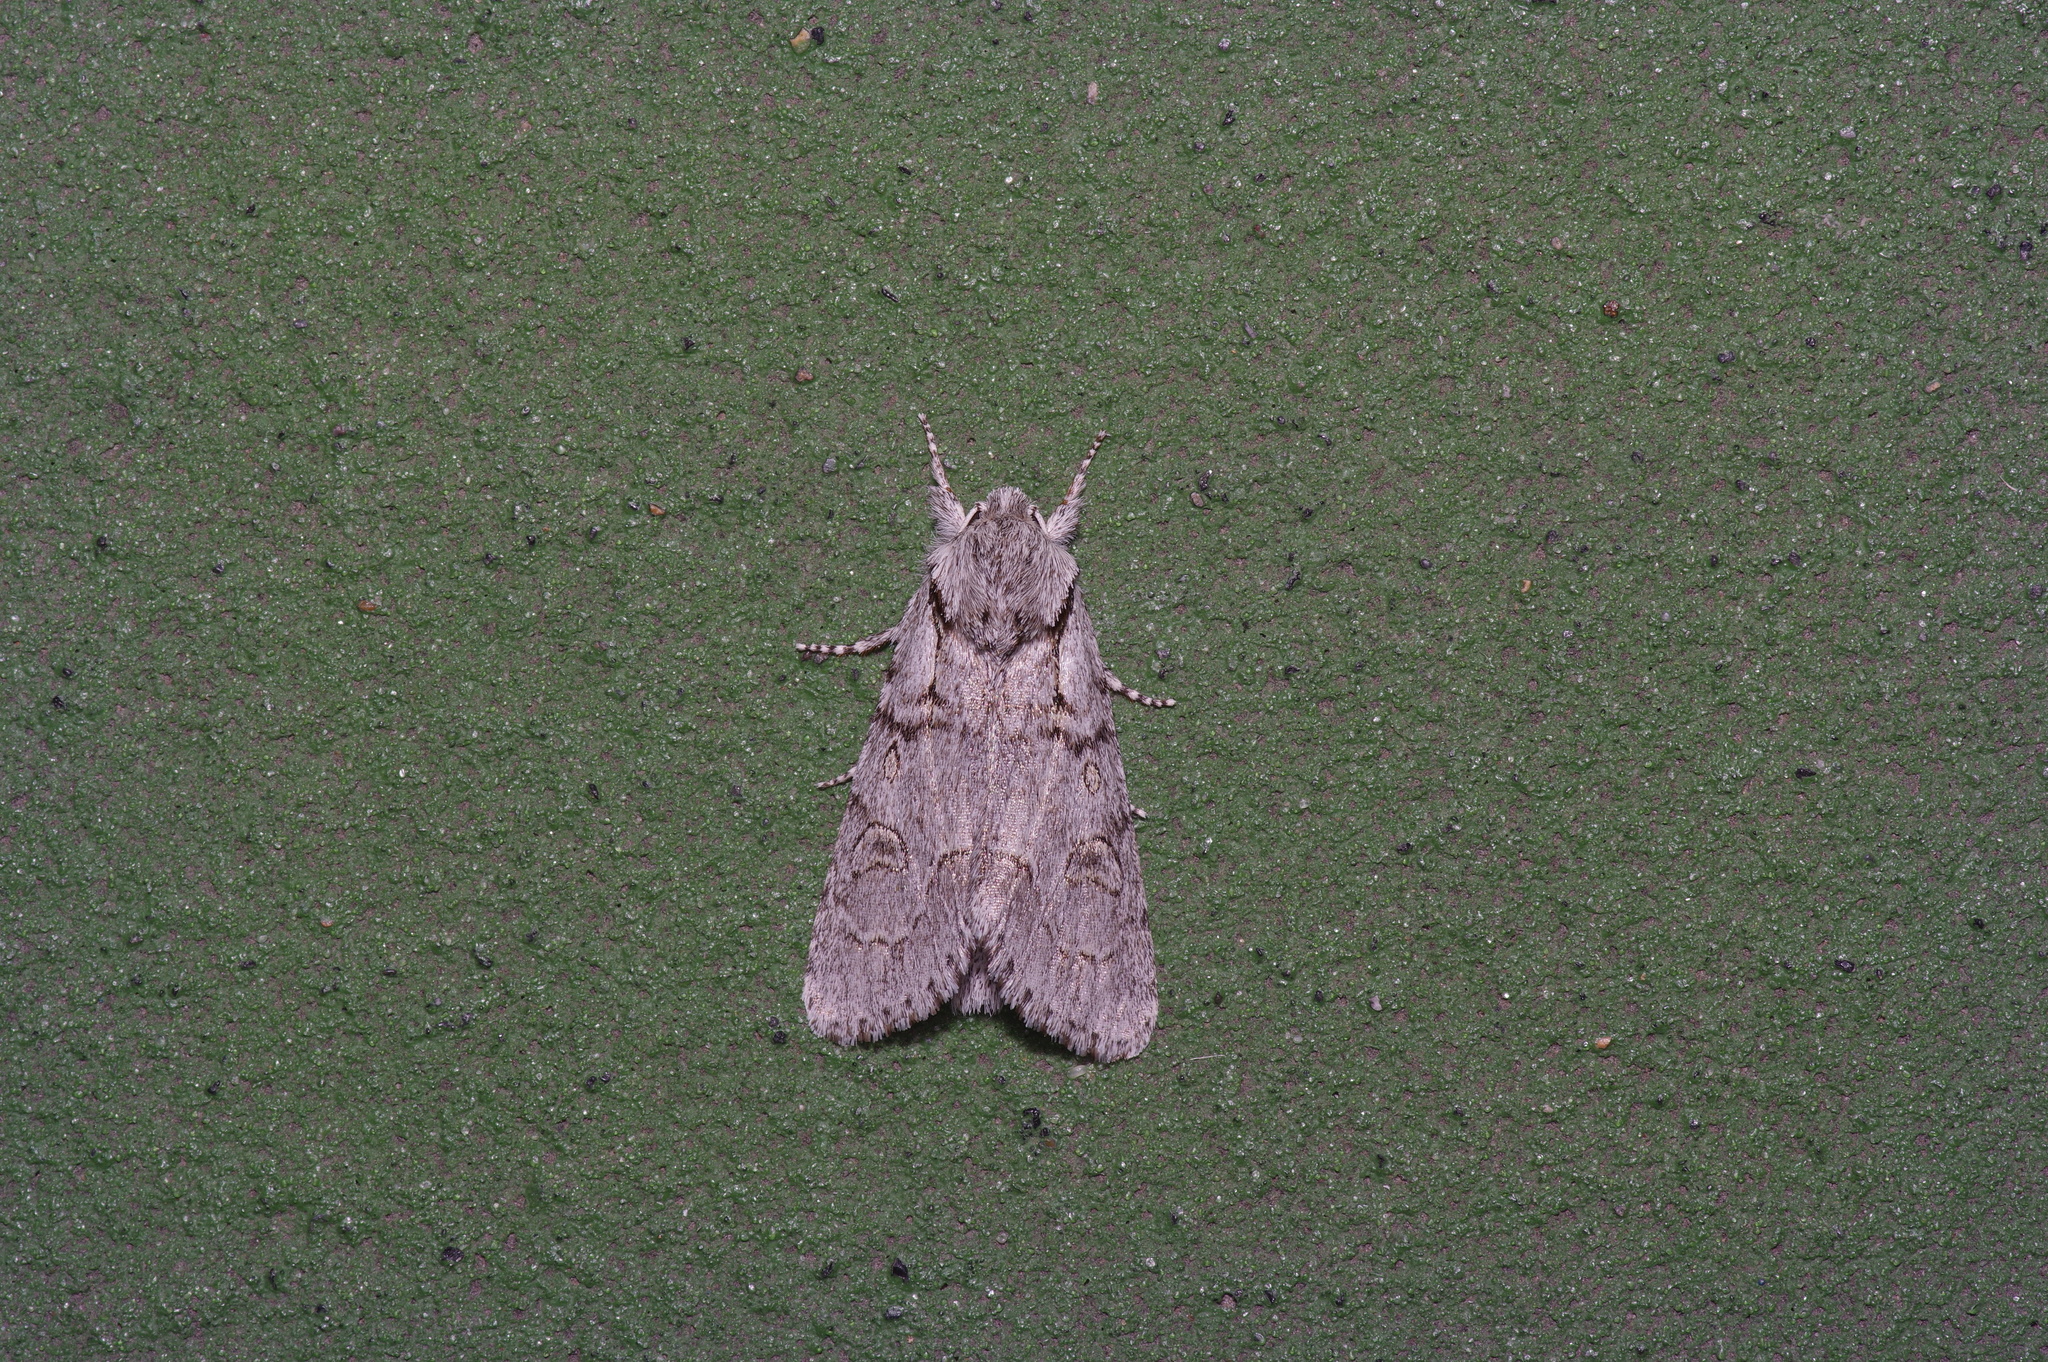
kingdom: Animalia
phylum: Arthropoda
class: Insecta
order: Lepidoptera
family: Noctuidae
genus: Acronicta
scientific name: Acronicta tota
